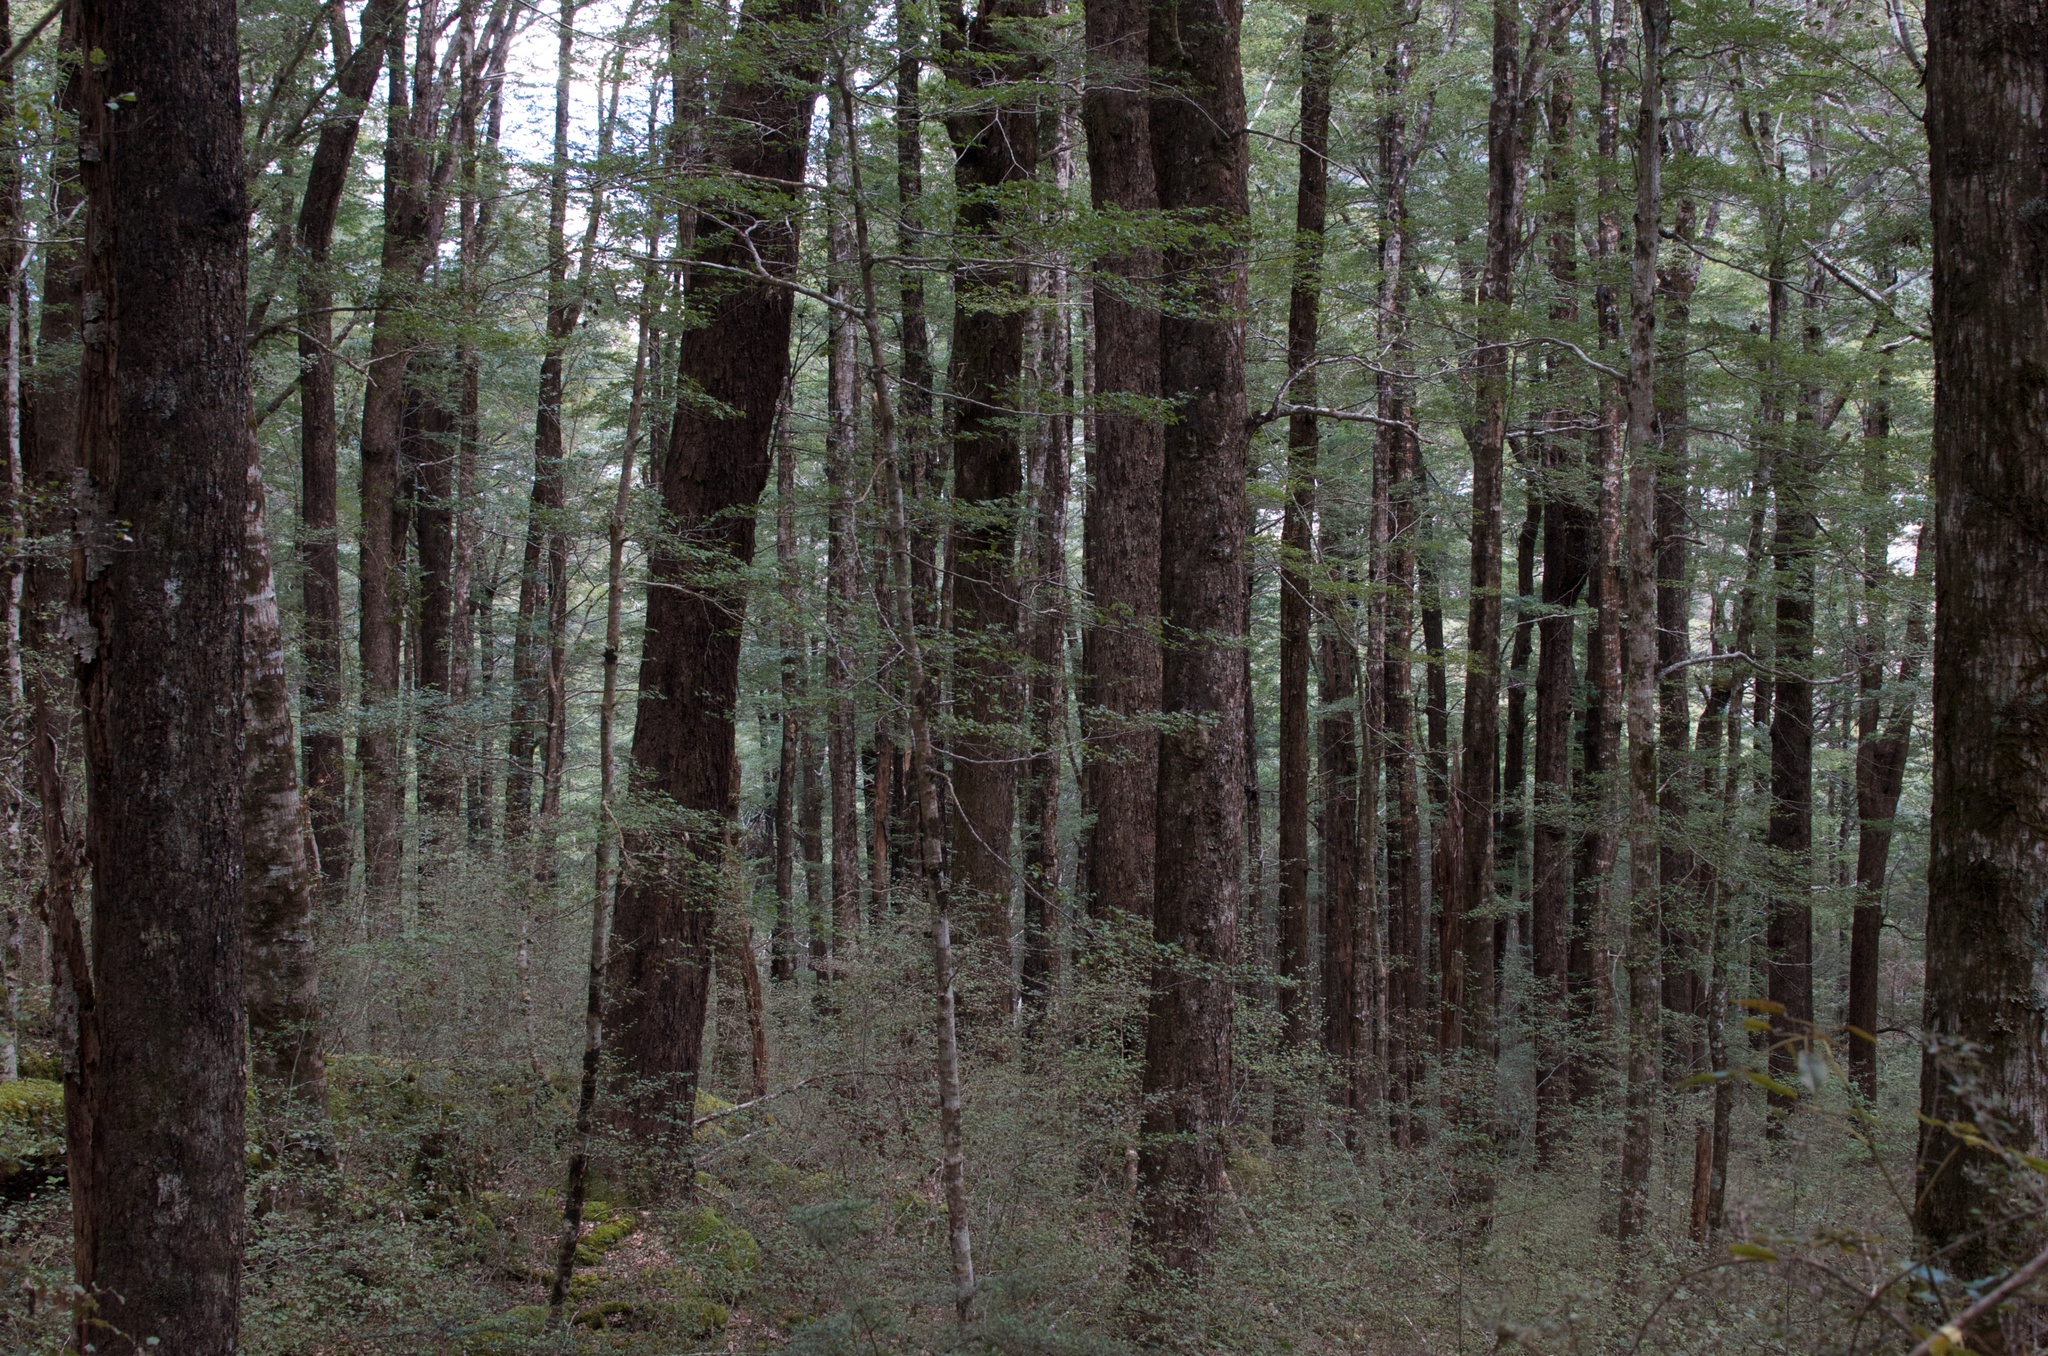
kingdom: Plantae
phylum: Tracheophyta
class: Magnoliopsida
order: Fagales
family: Nothofagaceae
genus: Nothofagus
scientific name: Nothofagus cliffortioides
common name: Mountain beech
